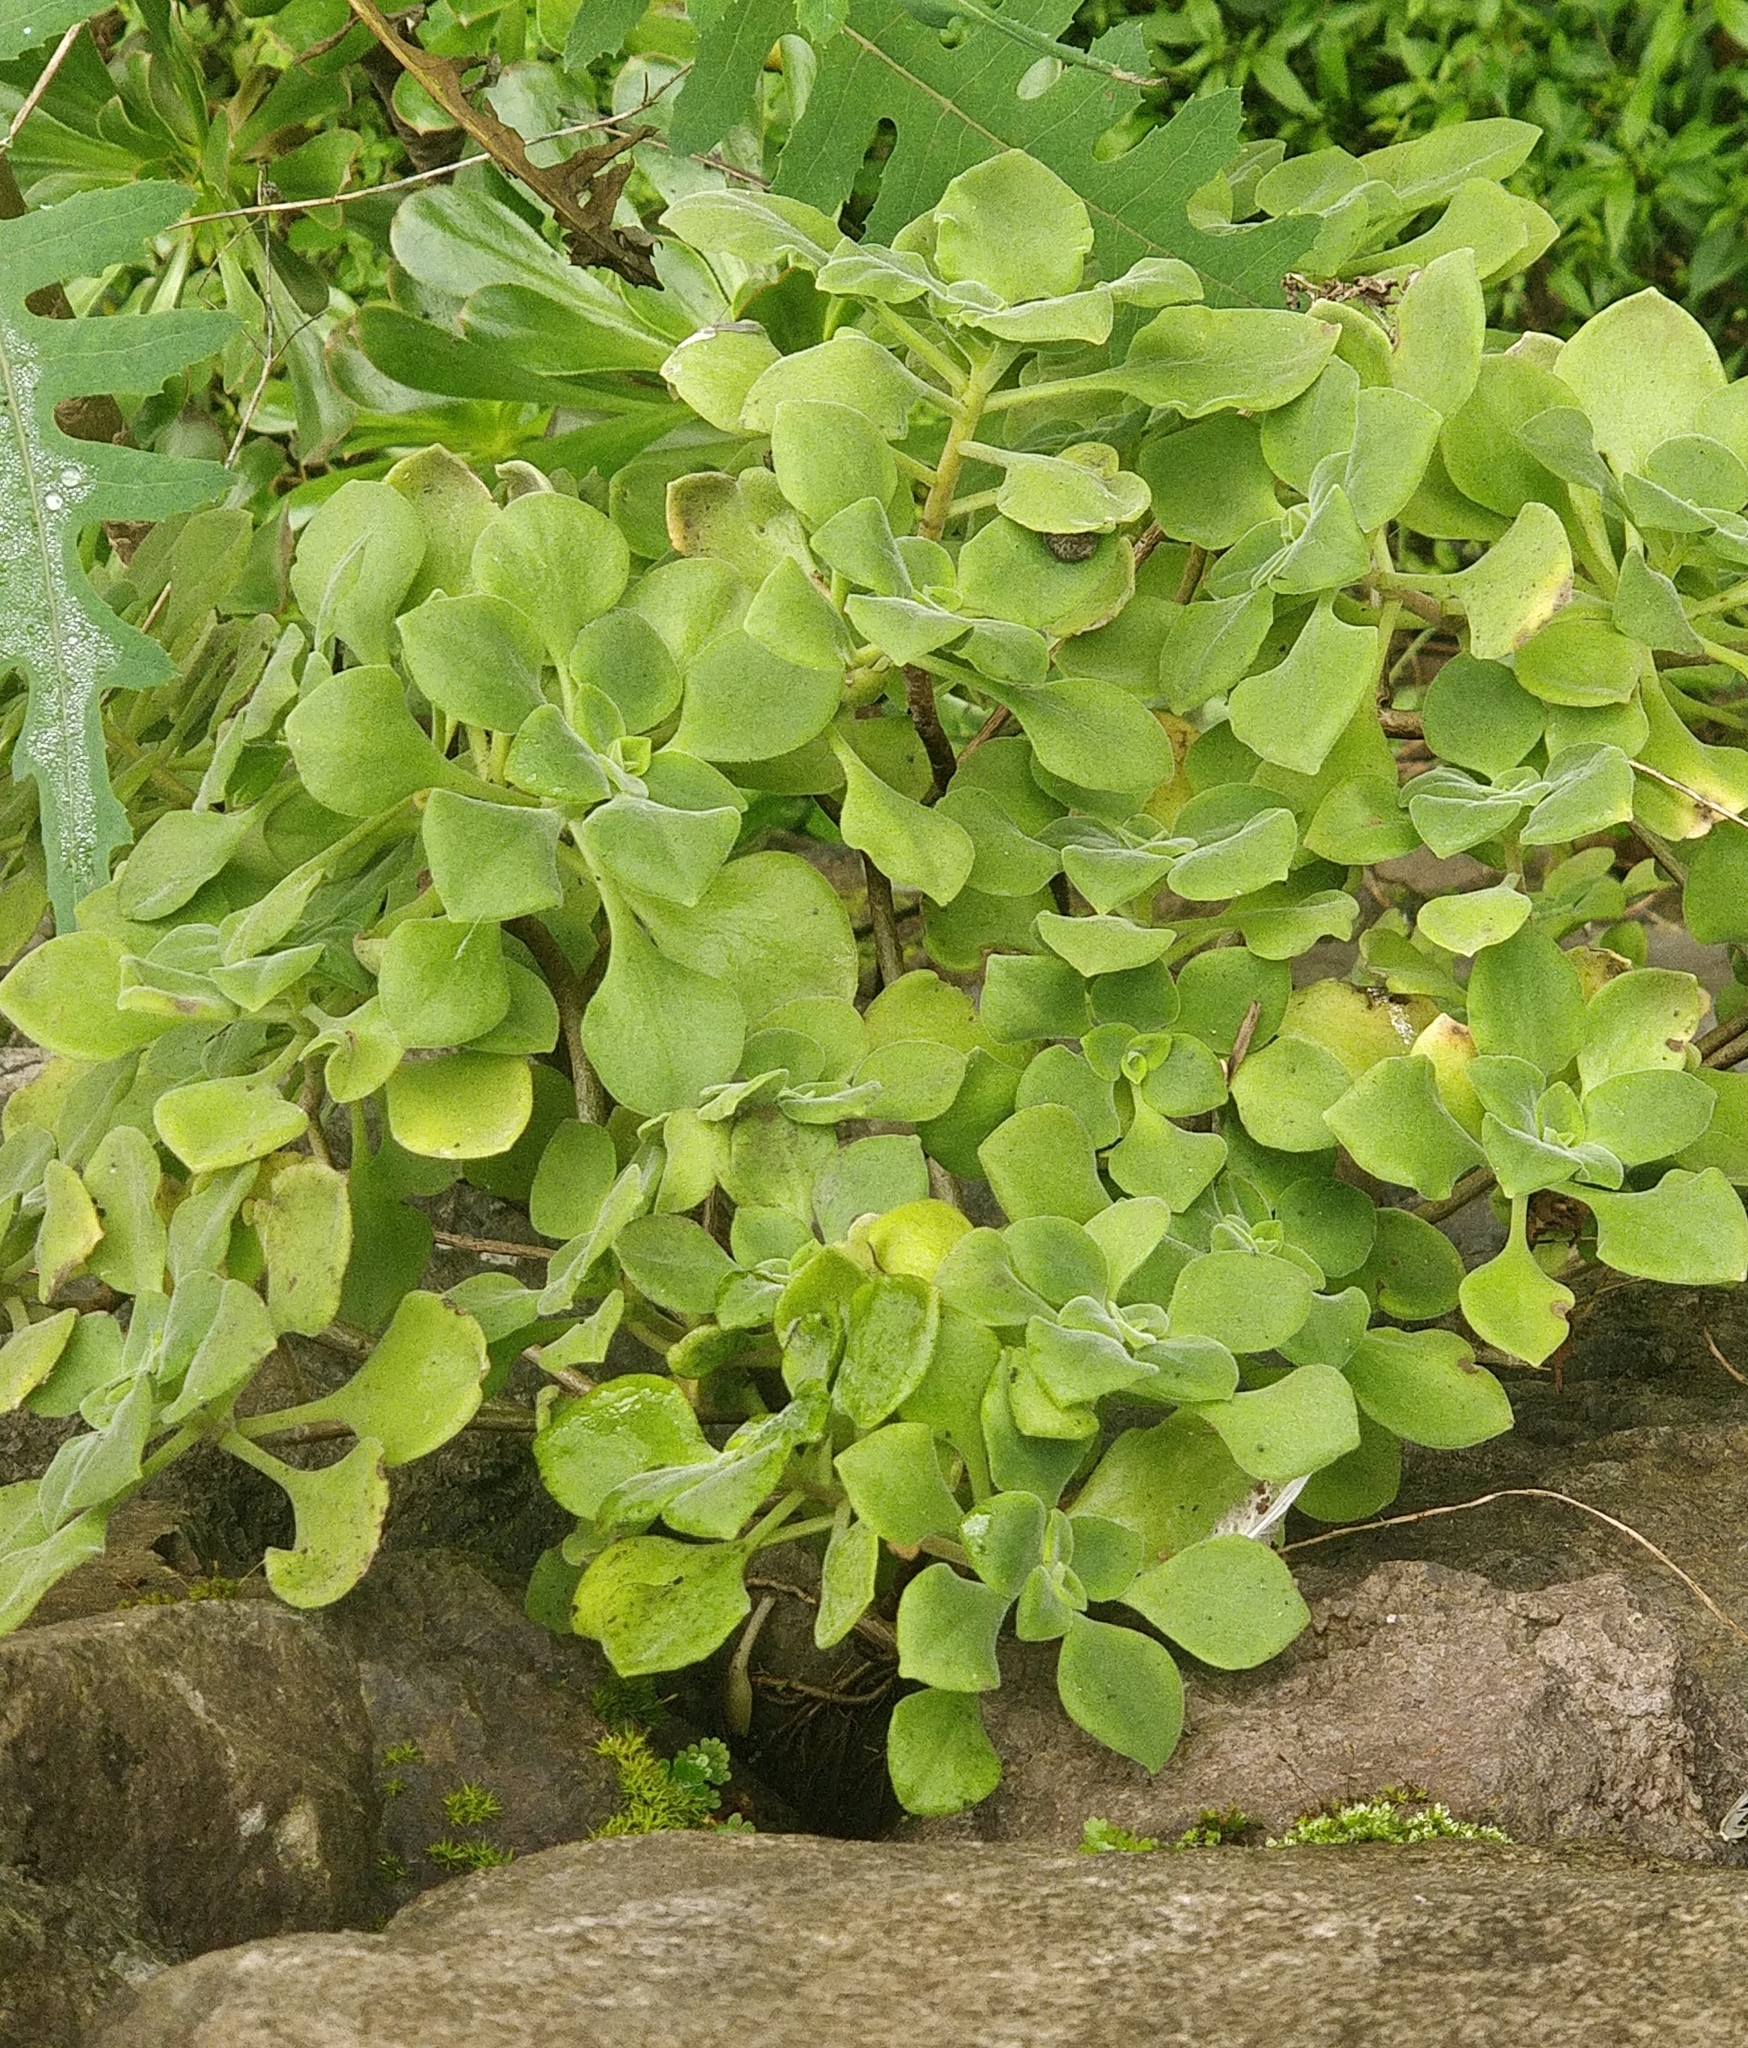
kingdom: Plantae
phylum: Tracheophyta
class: Magnoliopsida
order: Saxifragales
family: Crassulaceae
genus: Aeonium
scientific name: Aeonium goochiae
